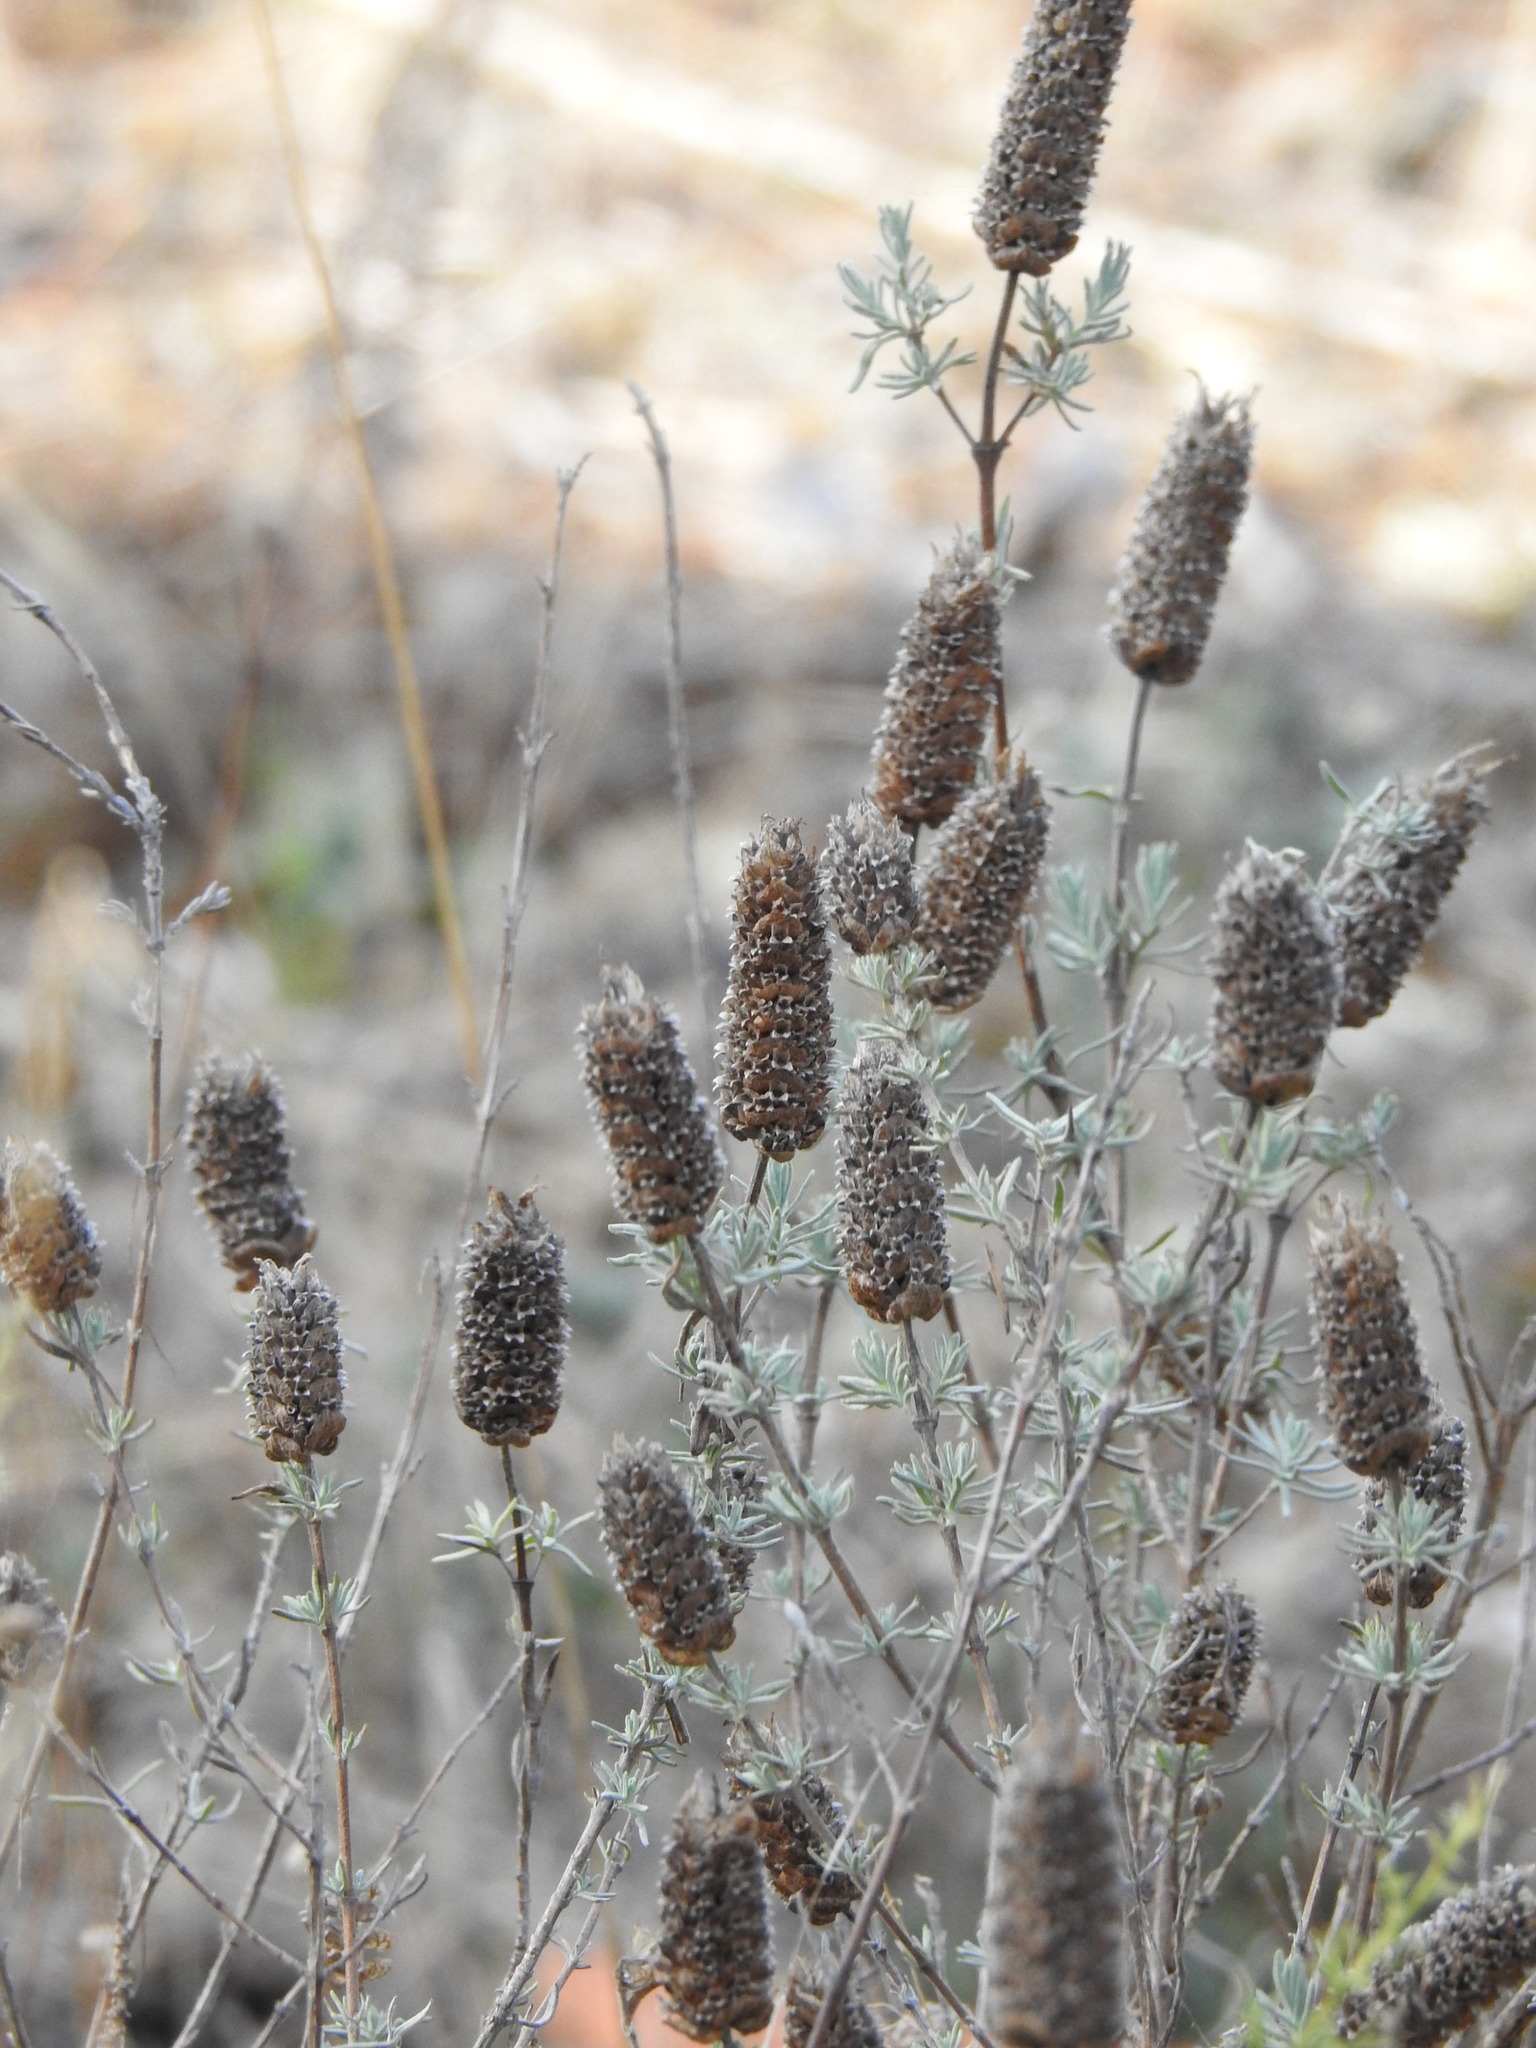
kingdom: Plantae
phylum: Tracheophyta
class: Magnoliopsida
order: Lamiales
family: Lamiaceae
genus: Lavandula
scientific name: Lavandula stoechas
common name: French lavender
